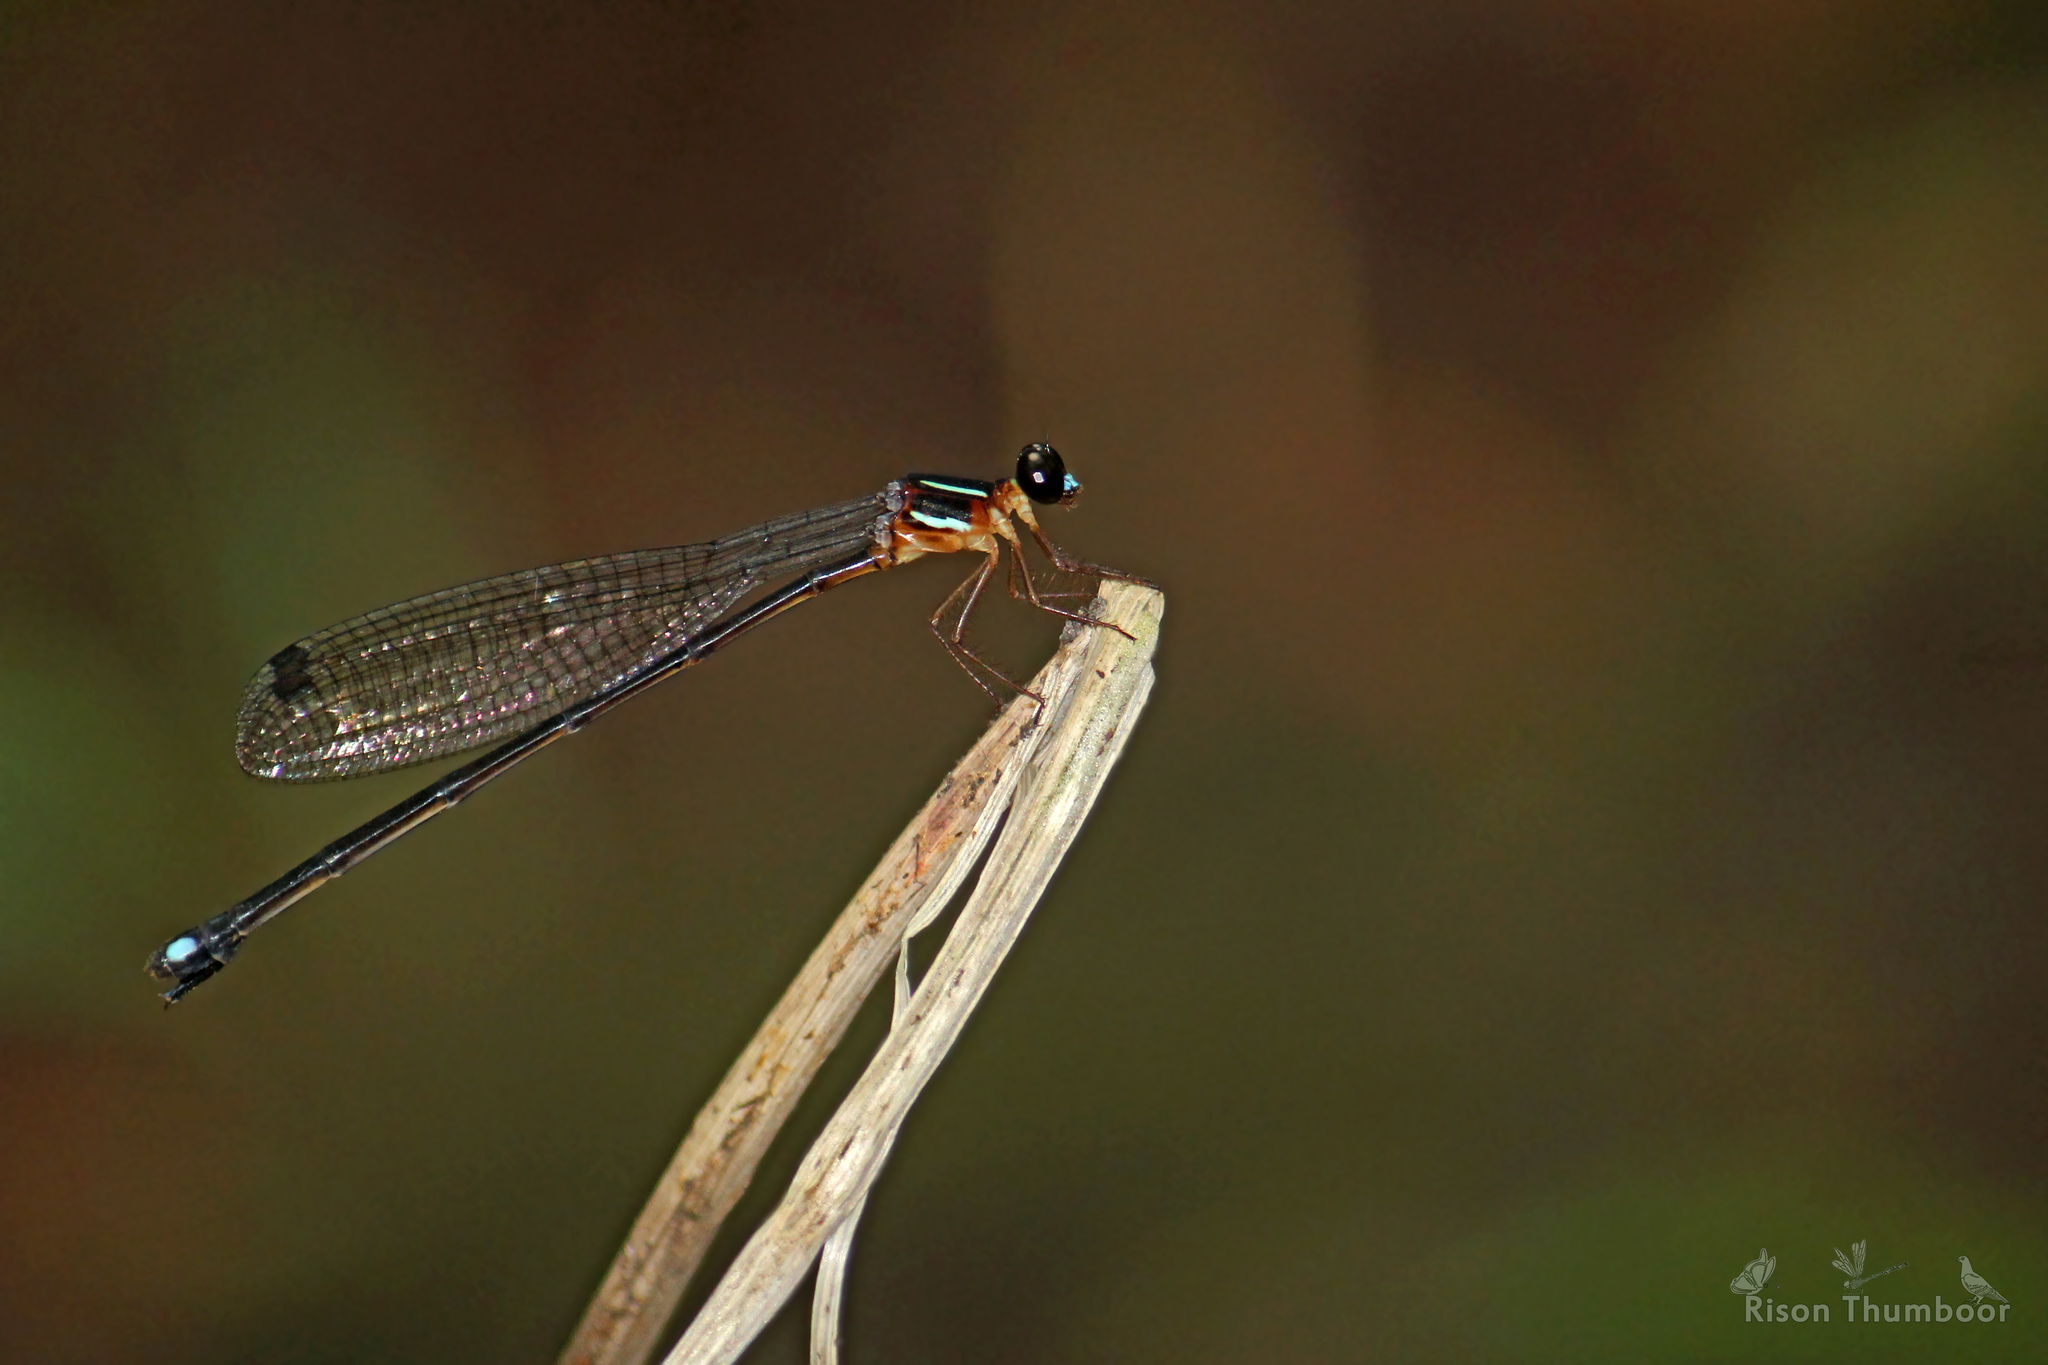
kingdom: Animalia
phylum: Arthropoda
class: Insecta
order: Odonata
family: Platystictidae
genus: Indosticta
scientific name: Indosticta deccanensis
